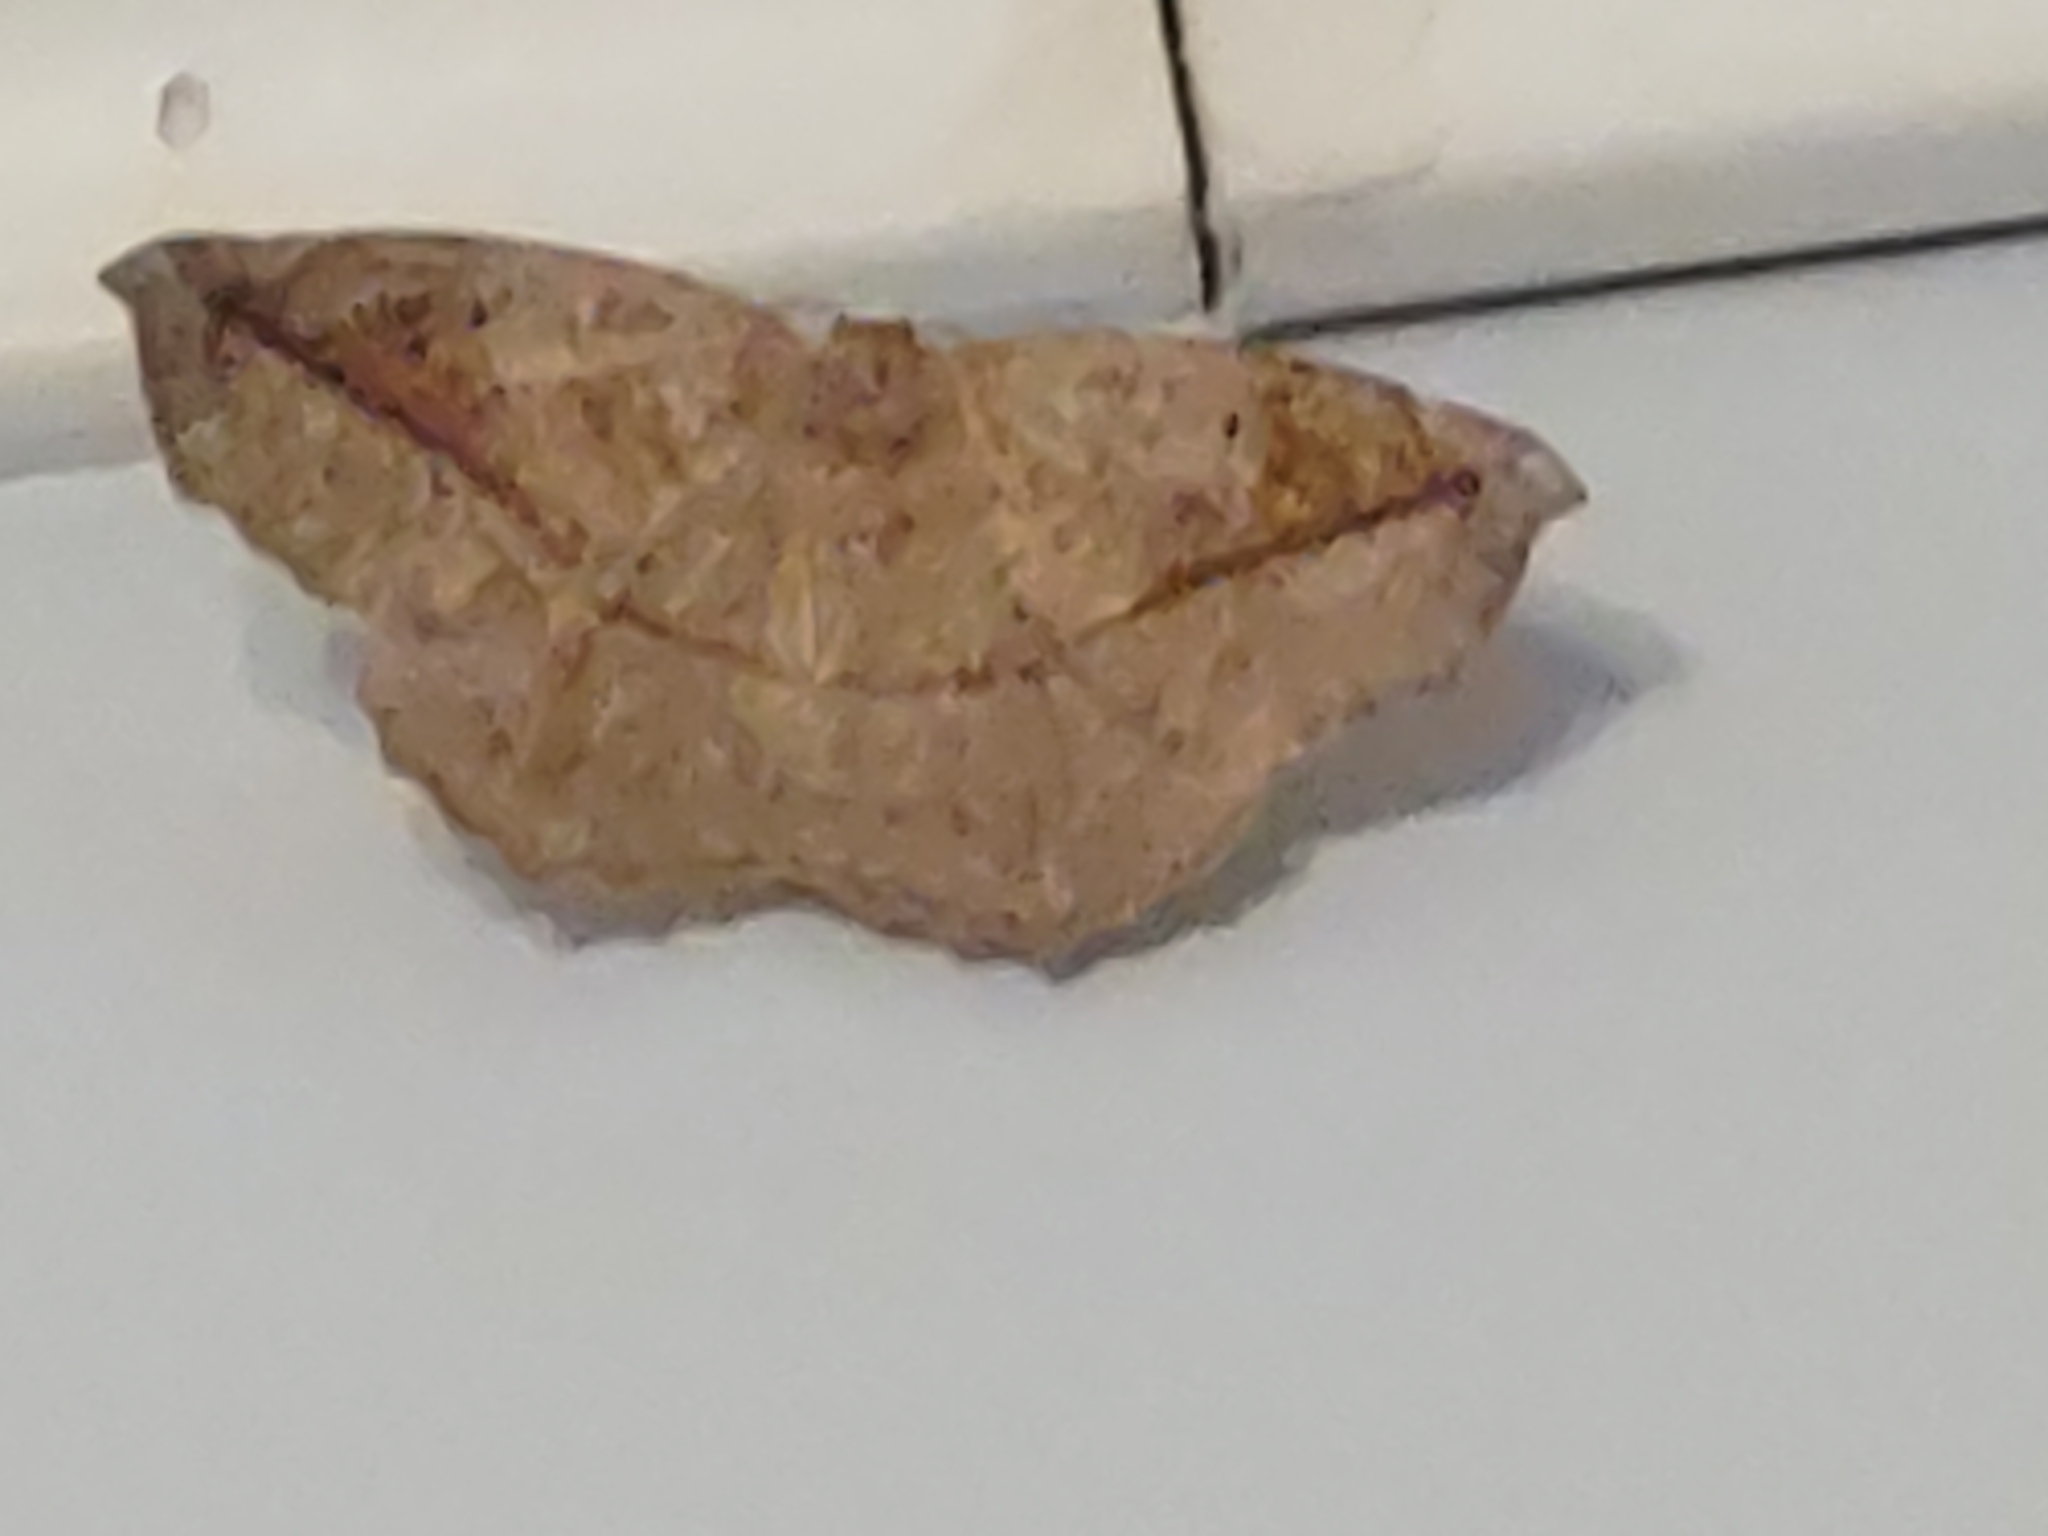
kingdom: Animalia
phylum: Arthropoda
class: Insecta
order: Lepidoptera
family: Geometridae
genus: Eutrapela
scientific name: Eutrapela clemataria
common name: Curved-toothed geometer
